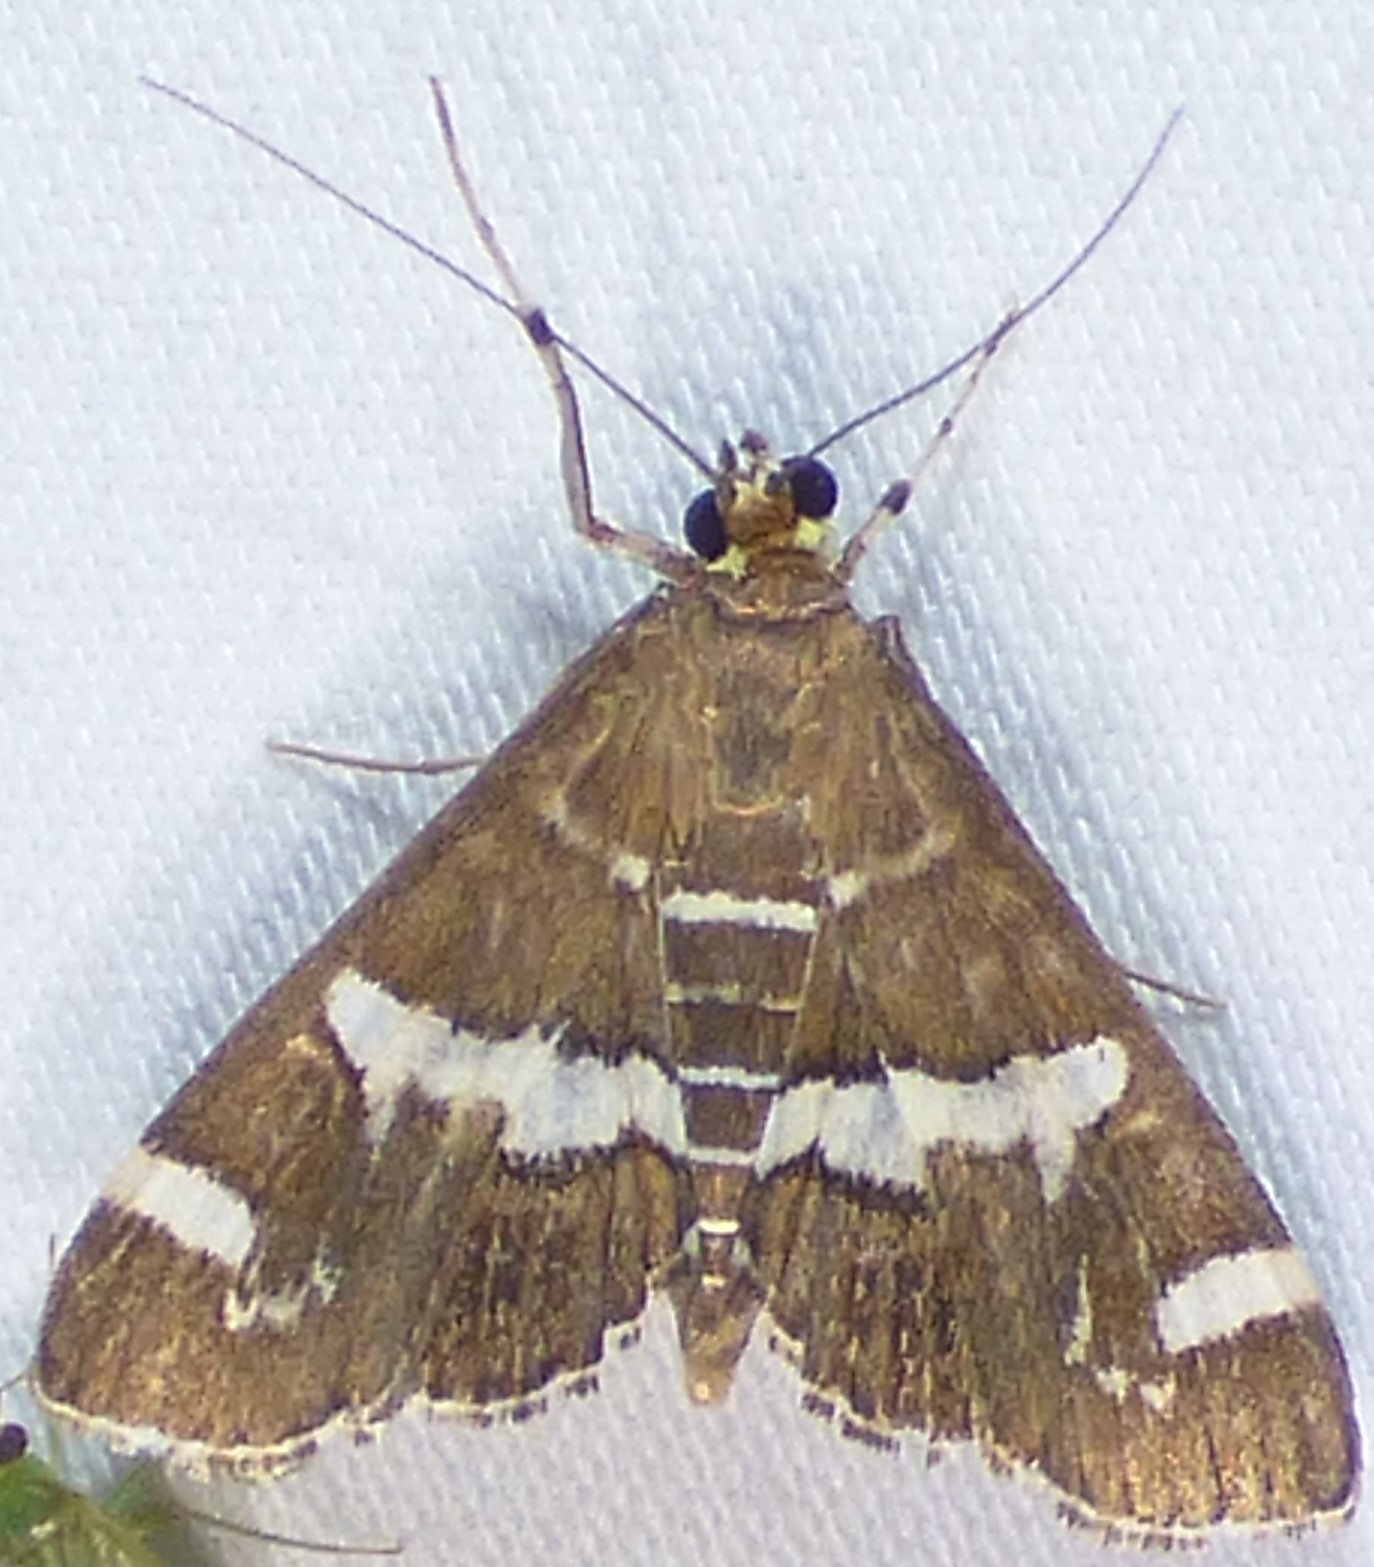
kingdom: Animalia
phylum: Arthropoda
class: Insecta
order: Lepidoptera
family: Crambidae
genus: Spoladea
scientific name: Spoladea recurvalis
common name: Beet webworm moth
